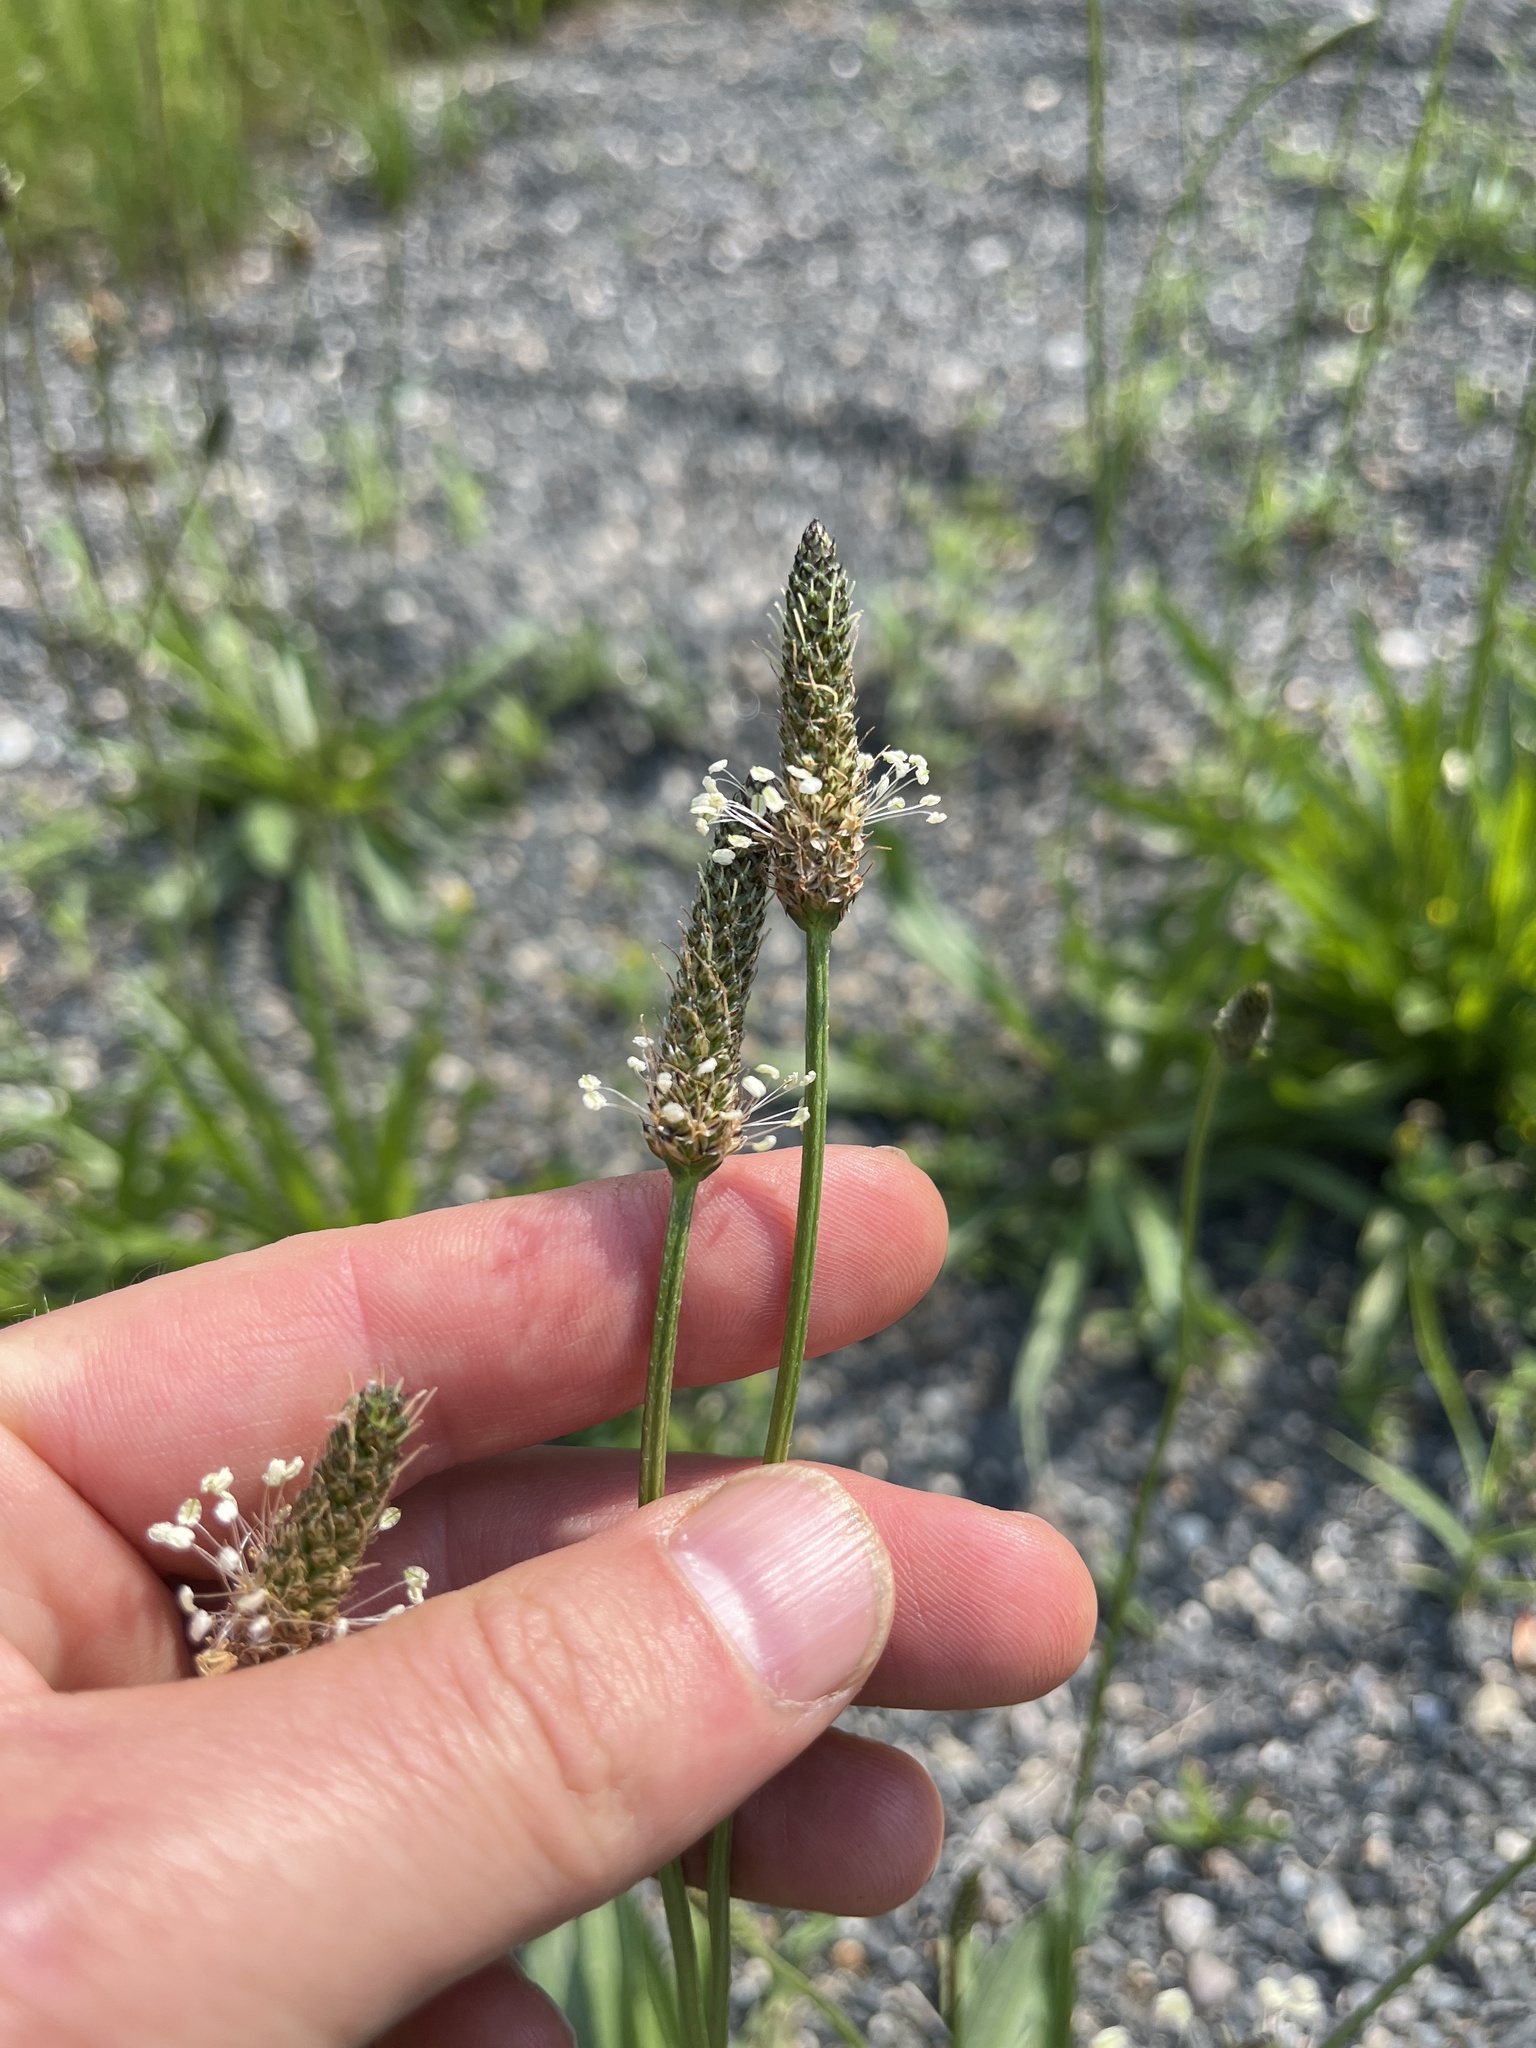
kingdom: Plantae
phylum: Tracheophyta
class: Magnoliopsida
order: Lamiales
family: Plantaginaceae
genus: Plantago
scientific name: Plantago lanceolata
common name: Ribwort plantain
